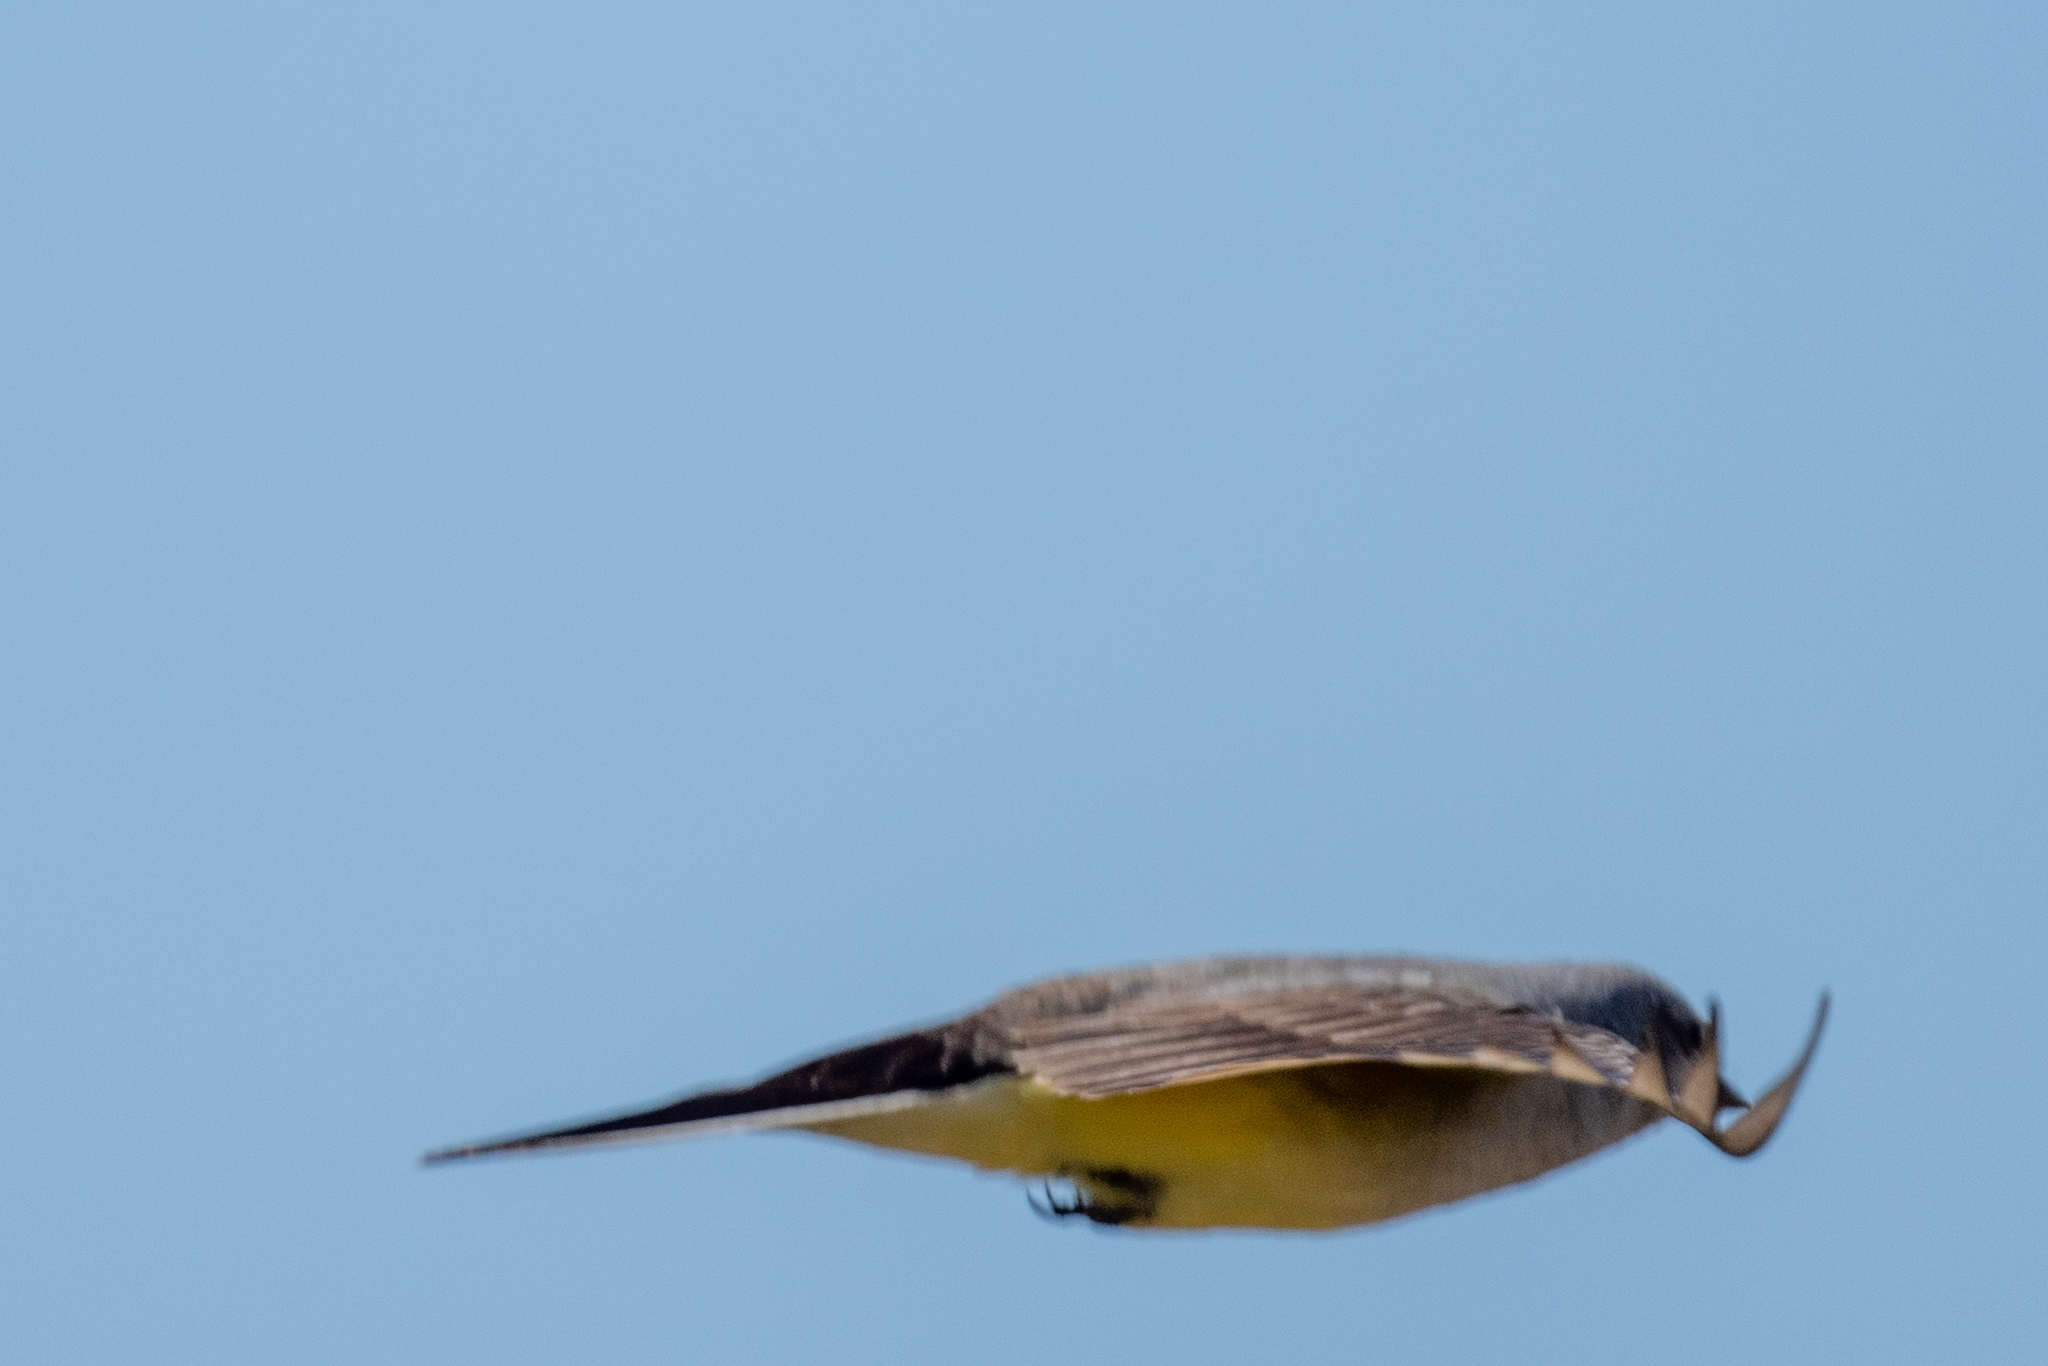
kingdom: Animalia
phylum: Chordata
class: Aves
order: Passeriformes
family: Tyrannidae
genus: Tyrannus
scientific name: Tyrannus verticalis
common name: Western kingbird
